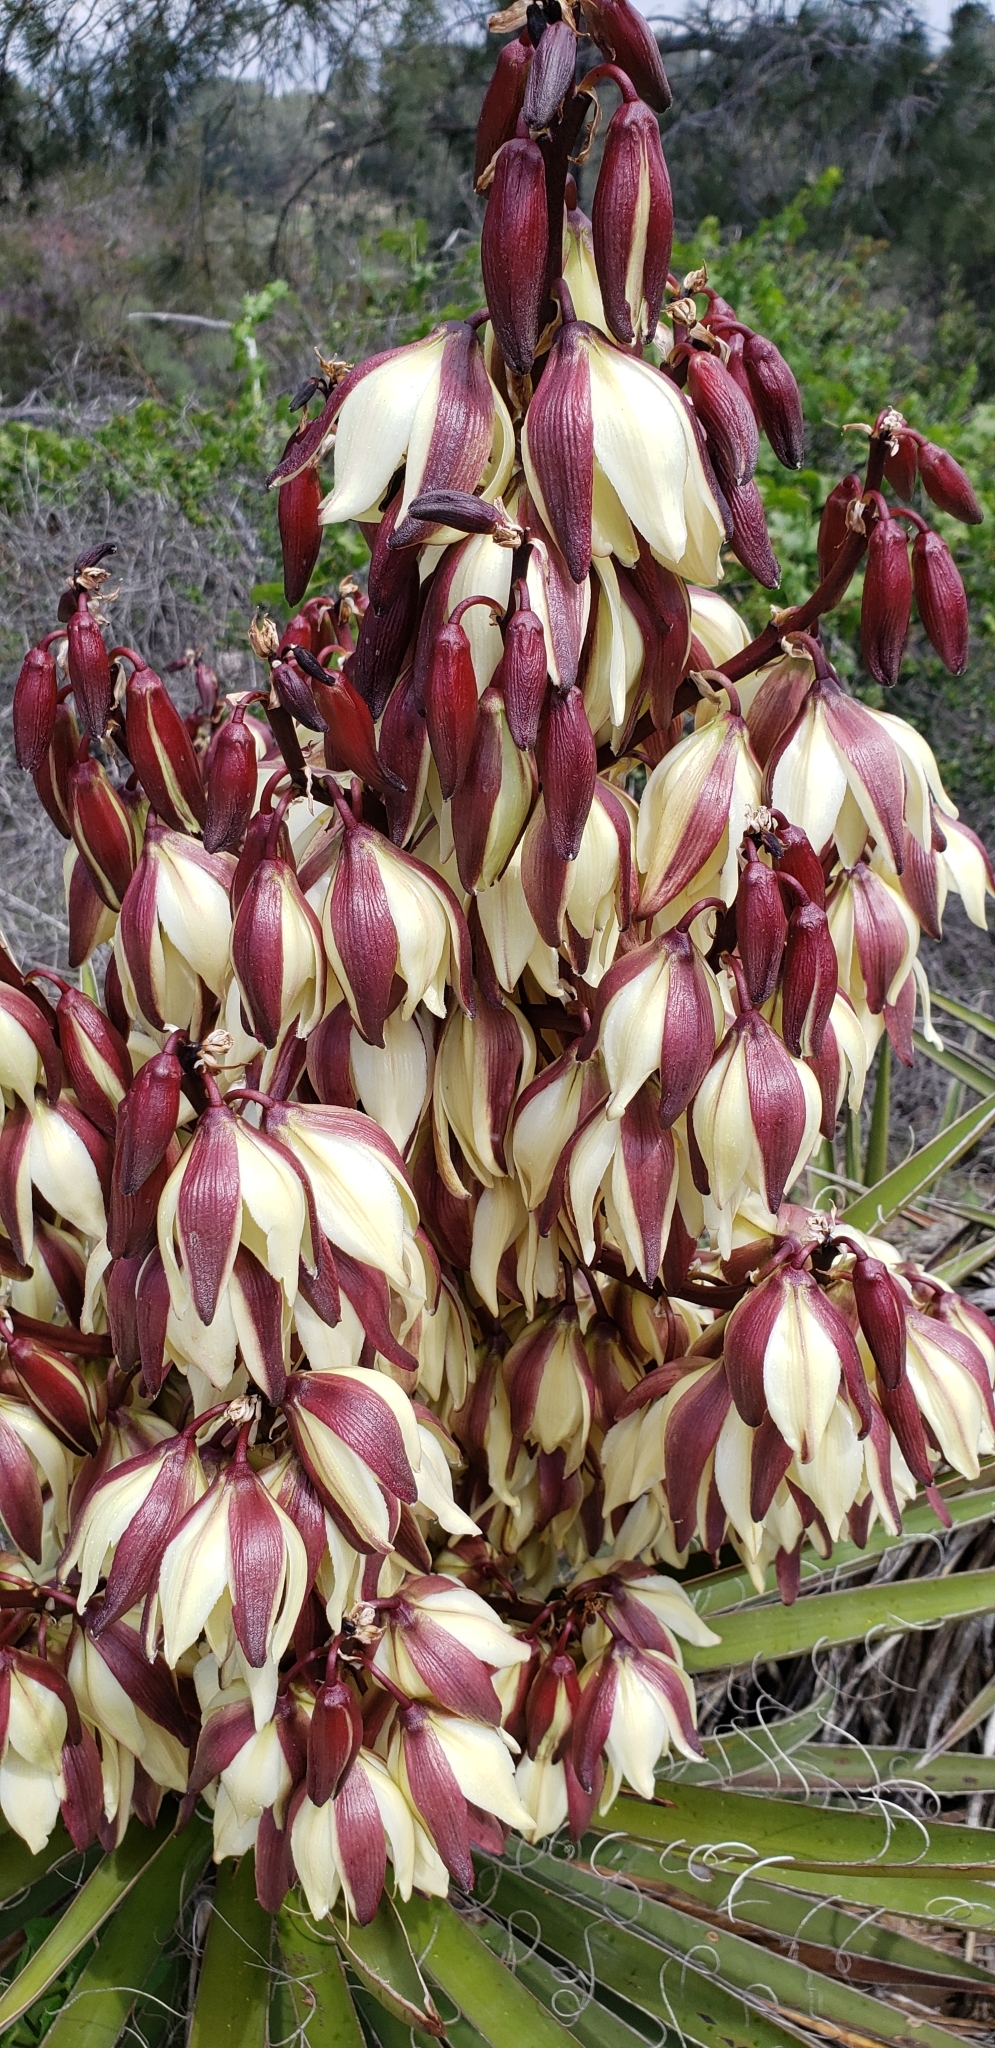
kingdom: Plantae
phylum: Tracheophyta
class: Liliopsida
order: Asparagales
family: Asparagaceae
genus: Yucca
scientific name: Yucca schidigera
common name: Mojave yucca
